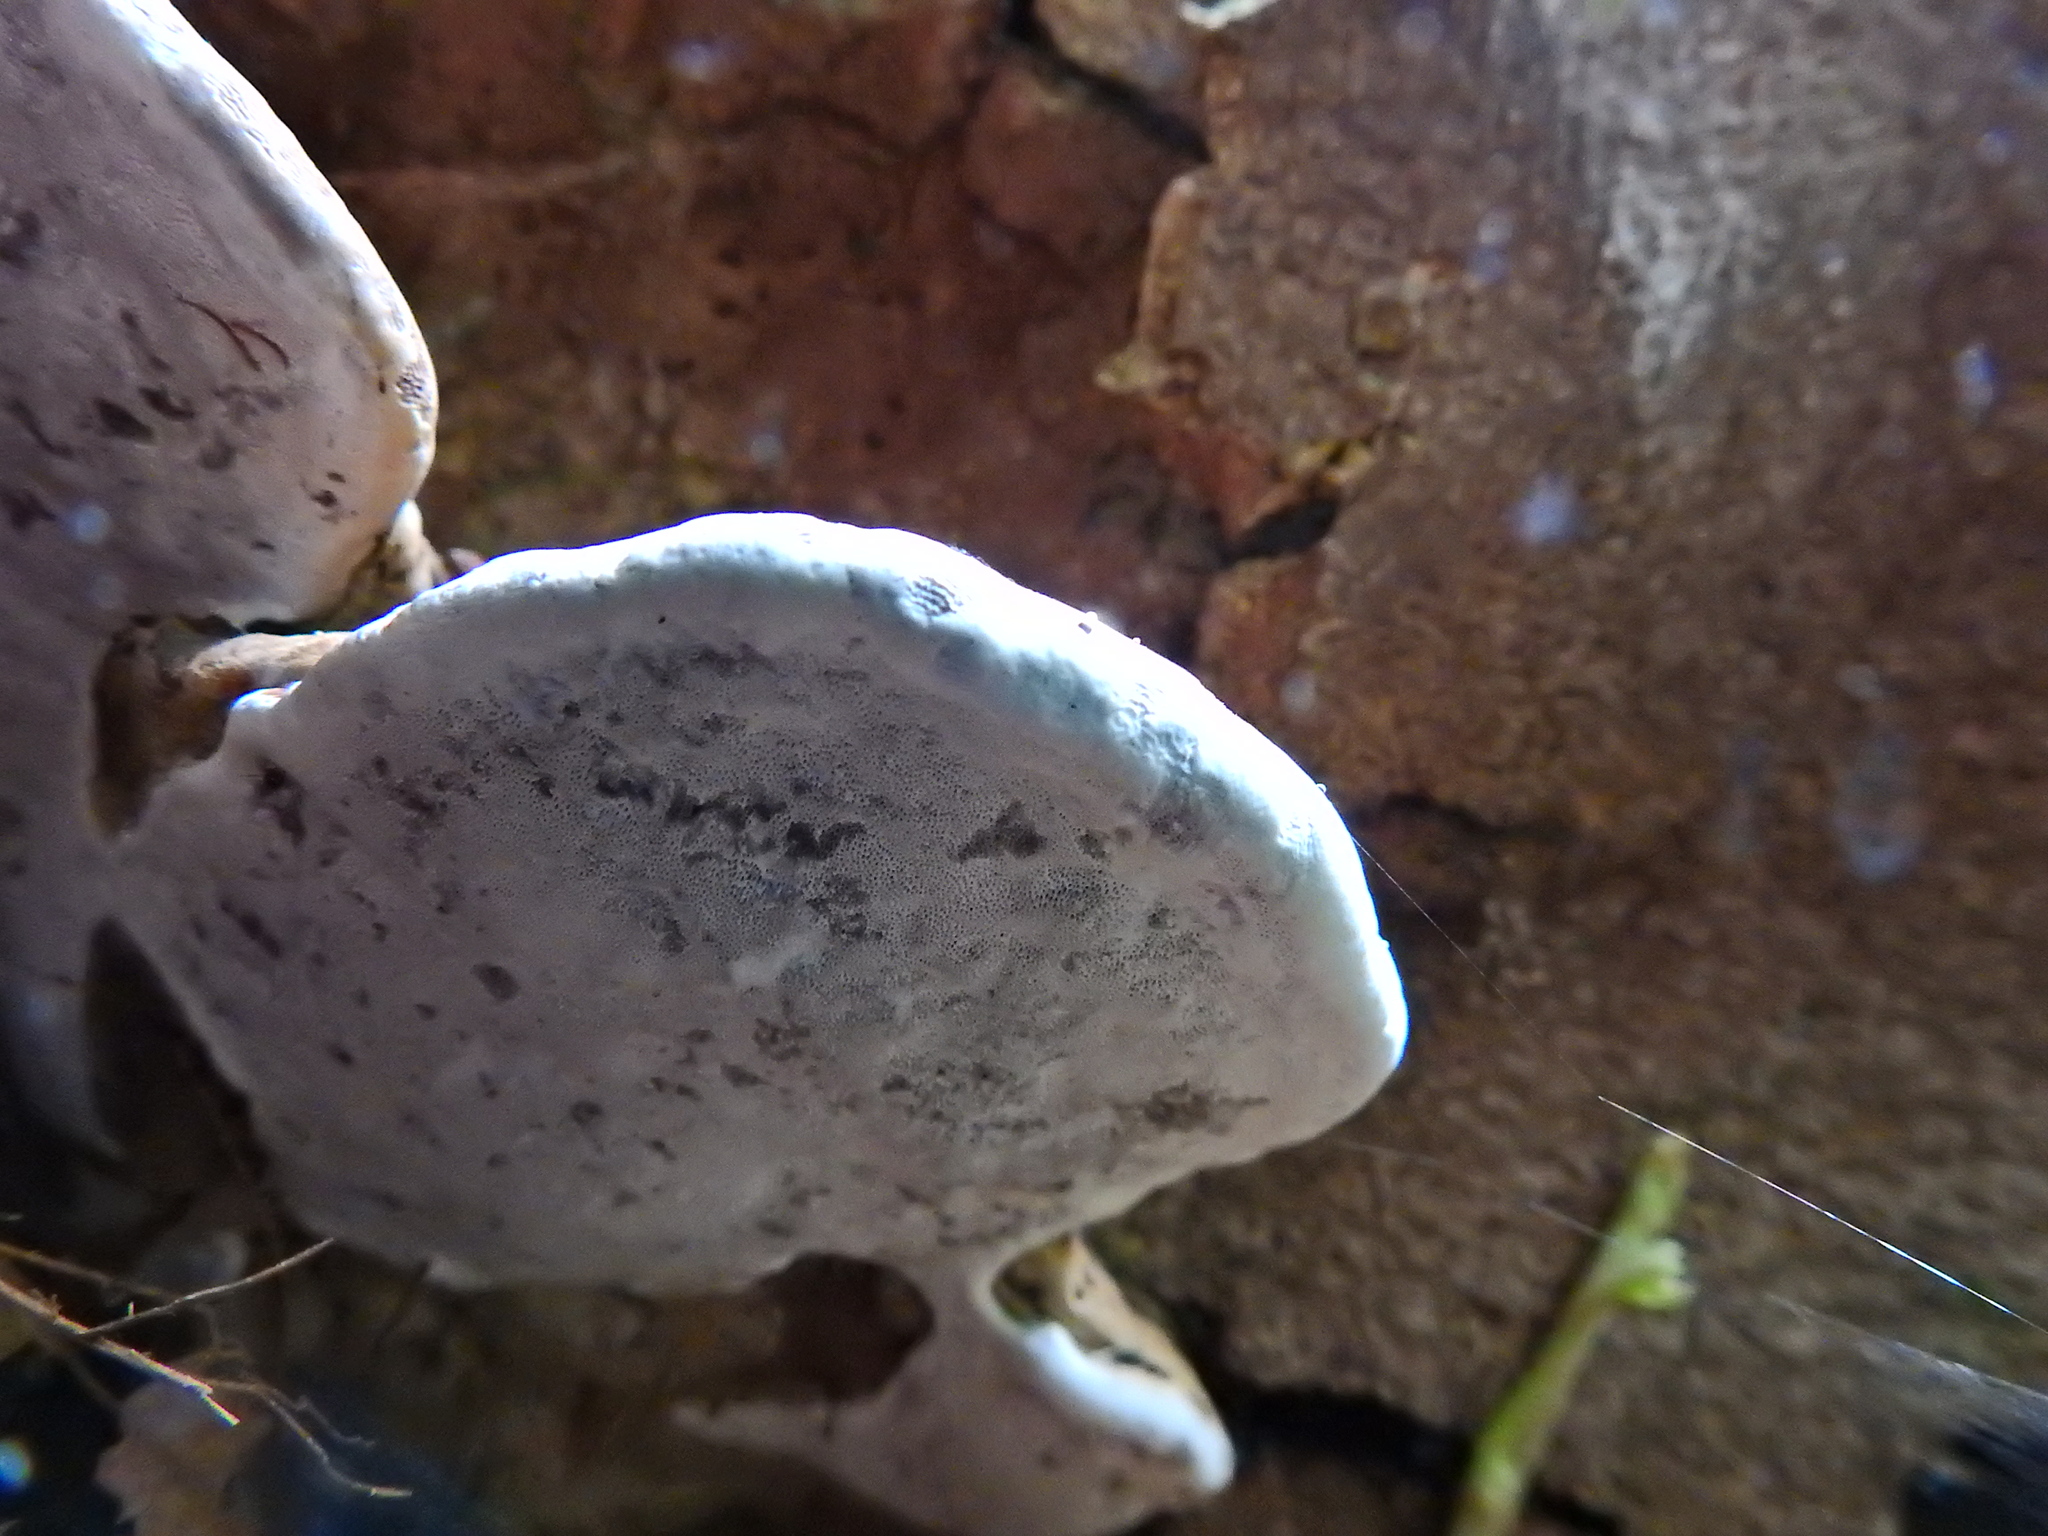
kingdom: Fungi
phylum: Basidiomycota
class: Agaricomycetes
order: Polyporales
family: Polyporaceae
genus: Ganoderma
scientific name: Ganoderma applanatum
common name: Artist's bracket
